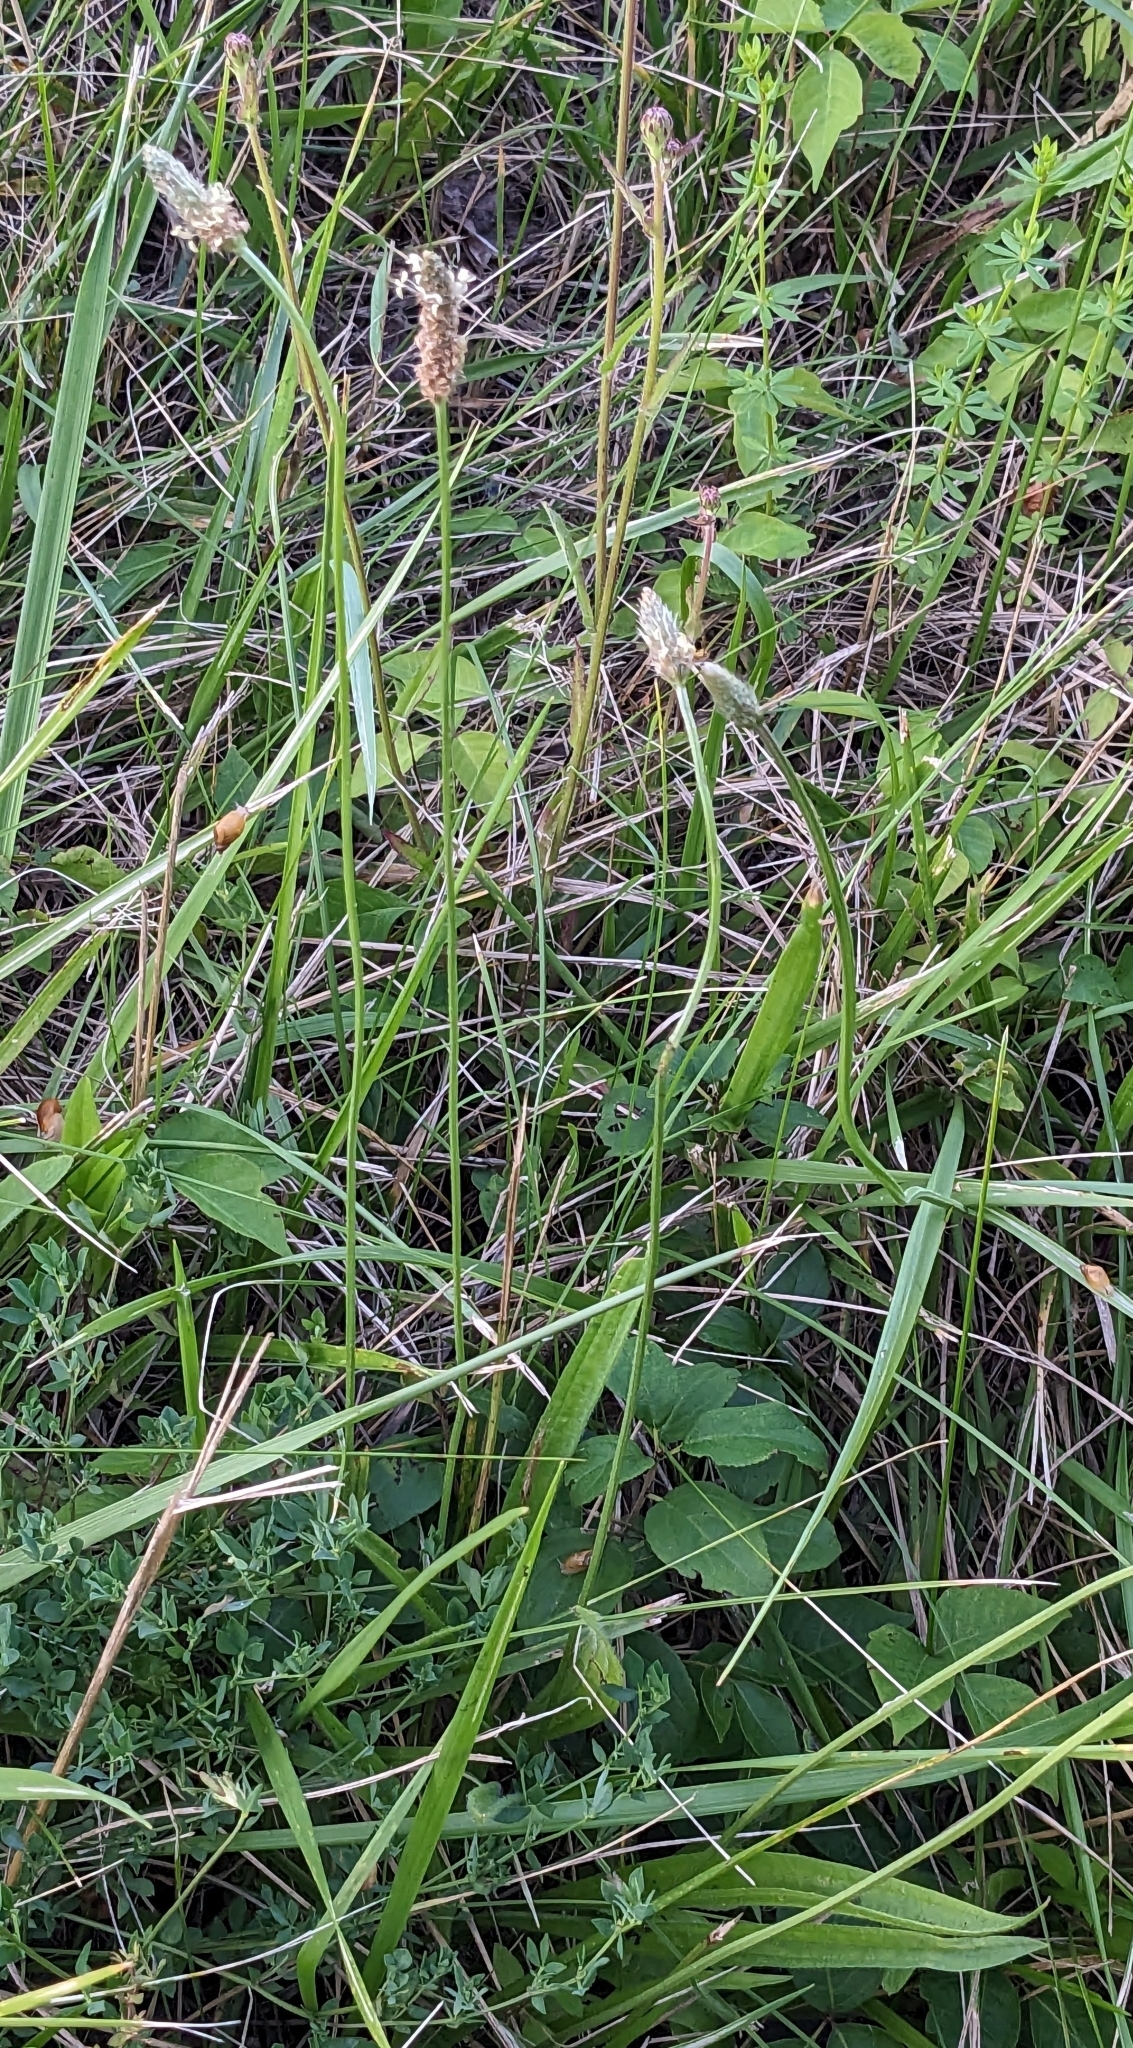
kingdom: Plantae
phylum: Tracheophyta
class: Magnoliopsida
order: Lamiales
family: Plantaginaceae
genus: Plantago
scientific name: Plantago lanceolata
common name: Ribwort plantain
